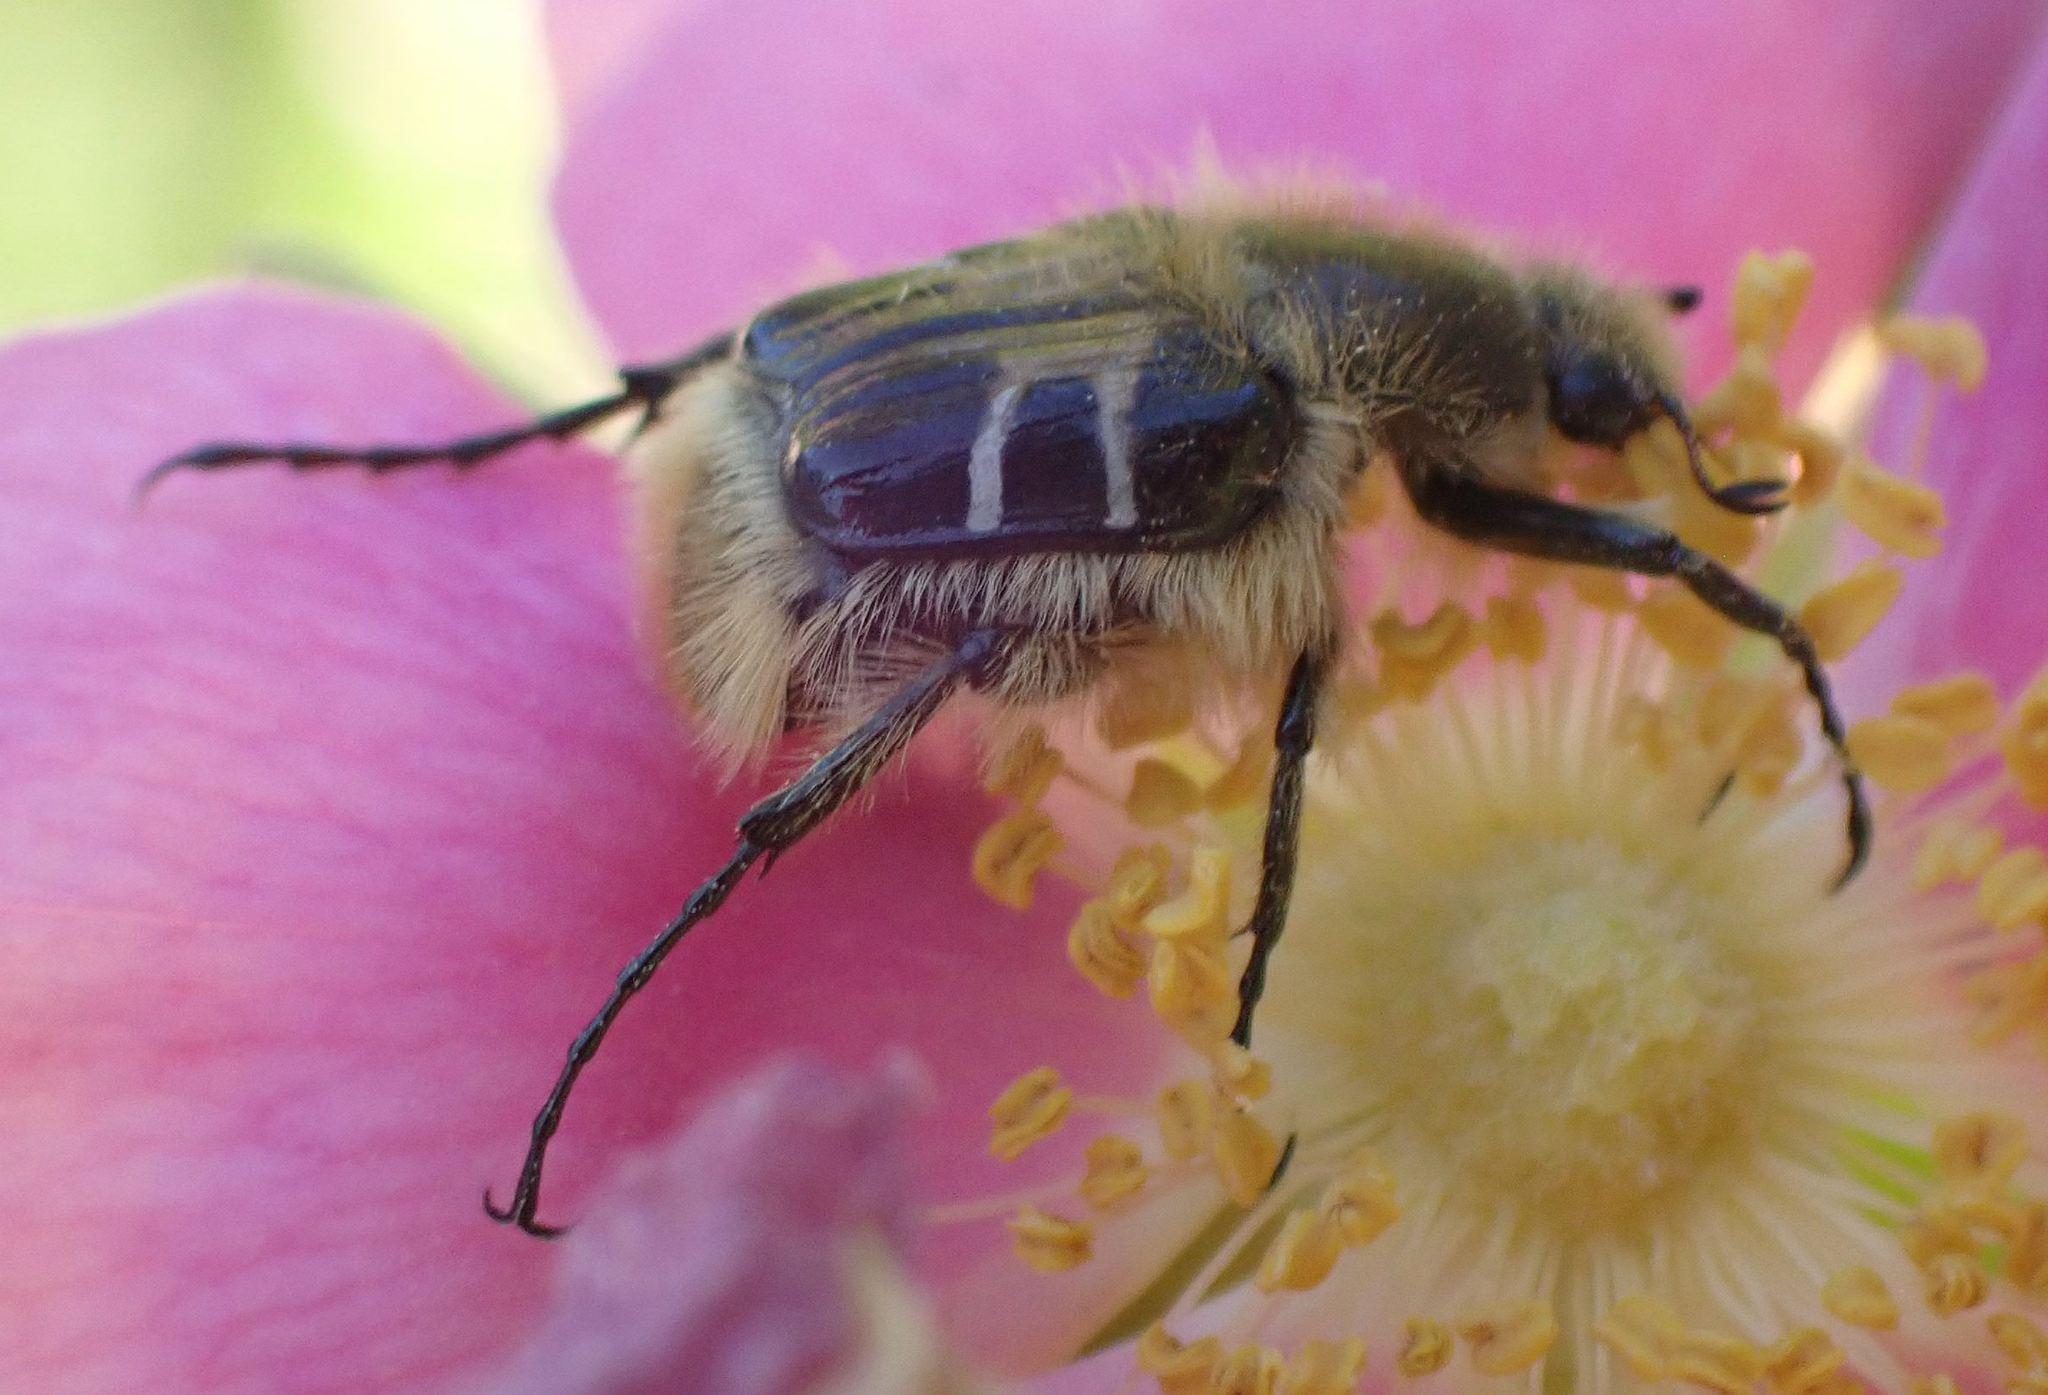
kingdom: Animalia
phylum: Arthropoda
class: Insecta
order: Coleoptera
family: Scarabaeidae
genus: Trichiotinus
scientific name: Trichiotinus assimilis
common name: Bee-mimic beetle
